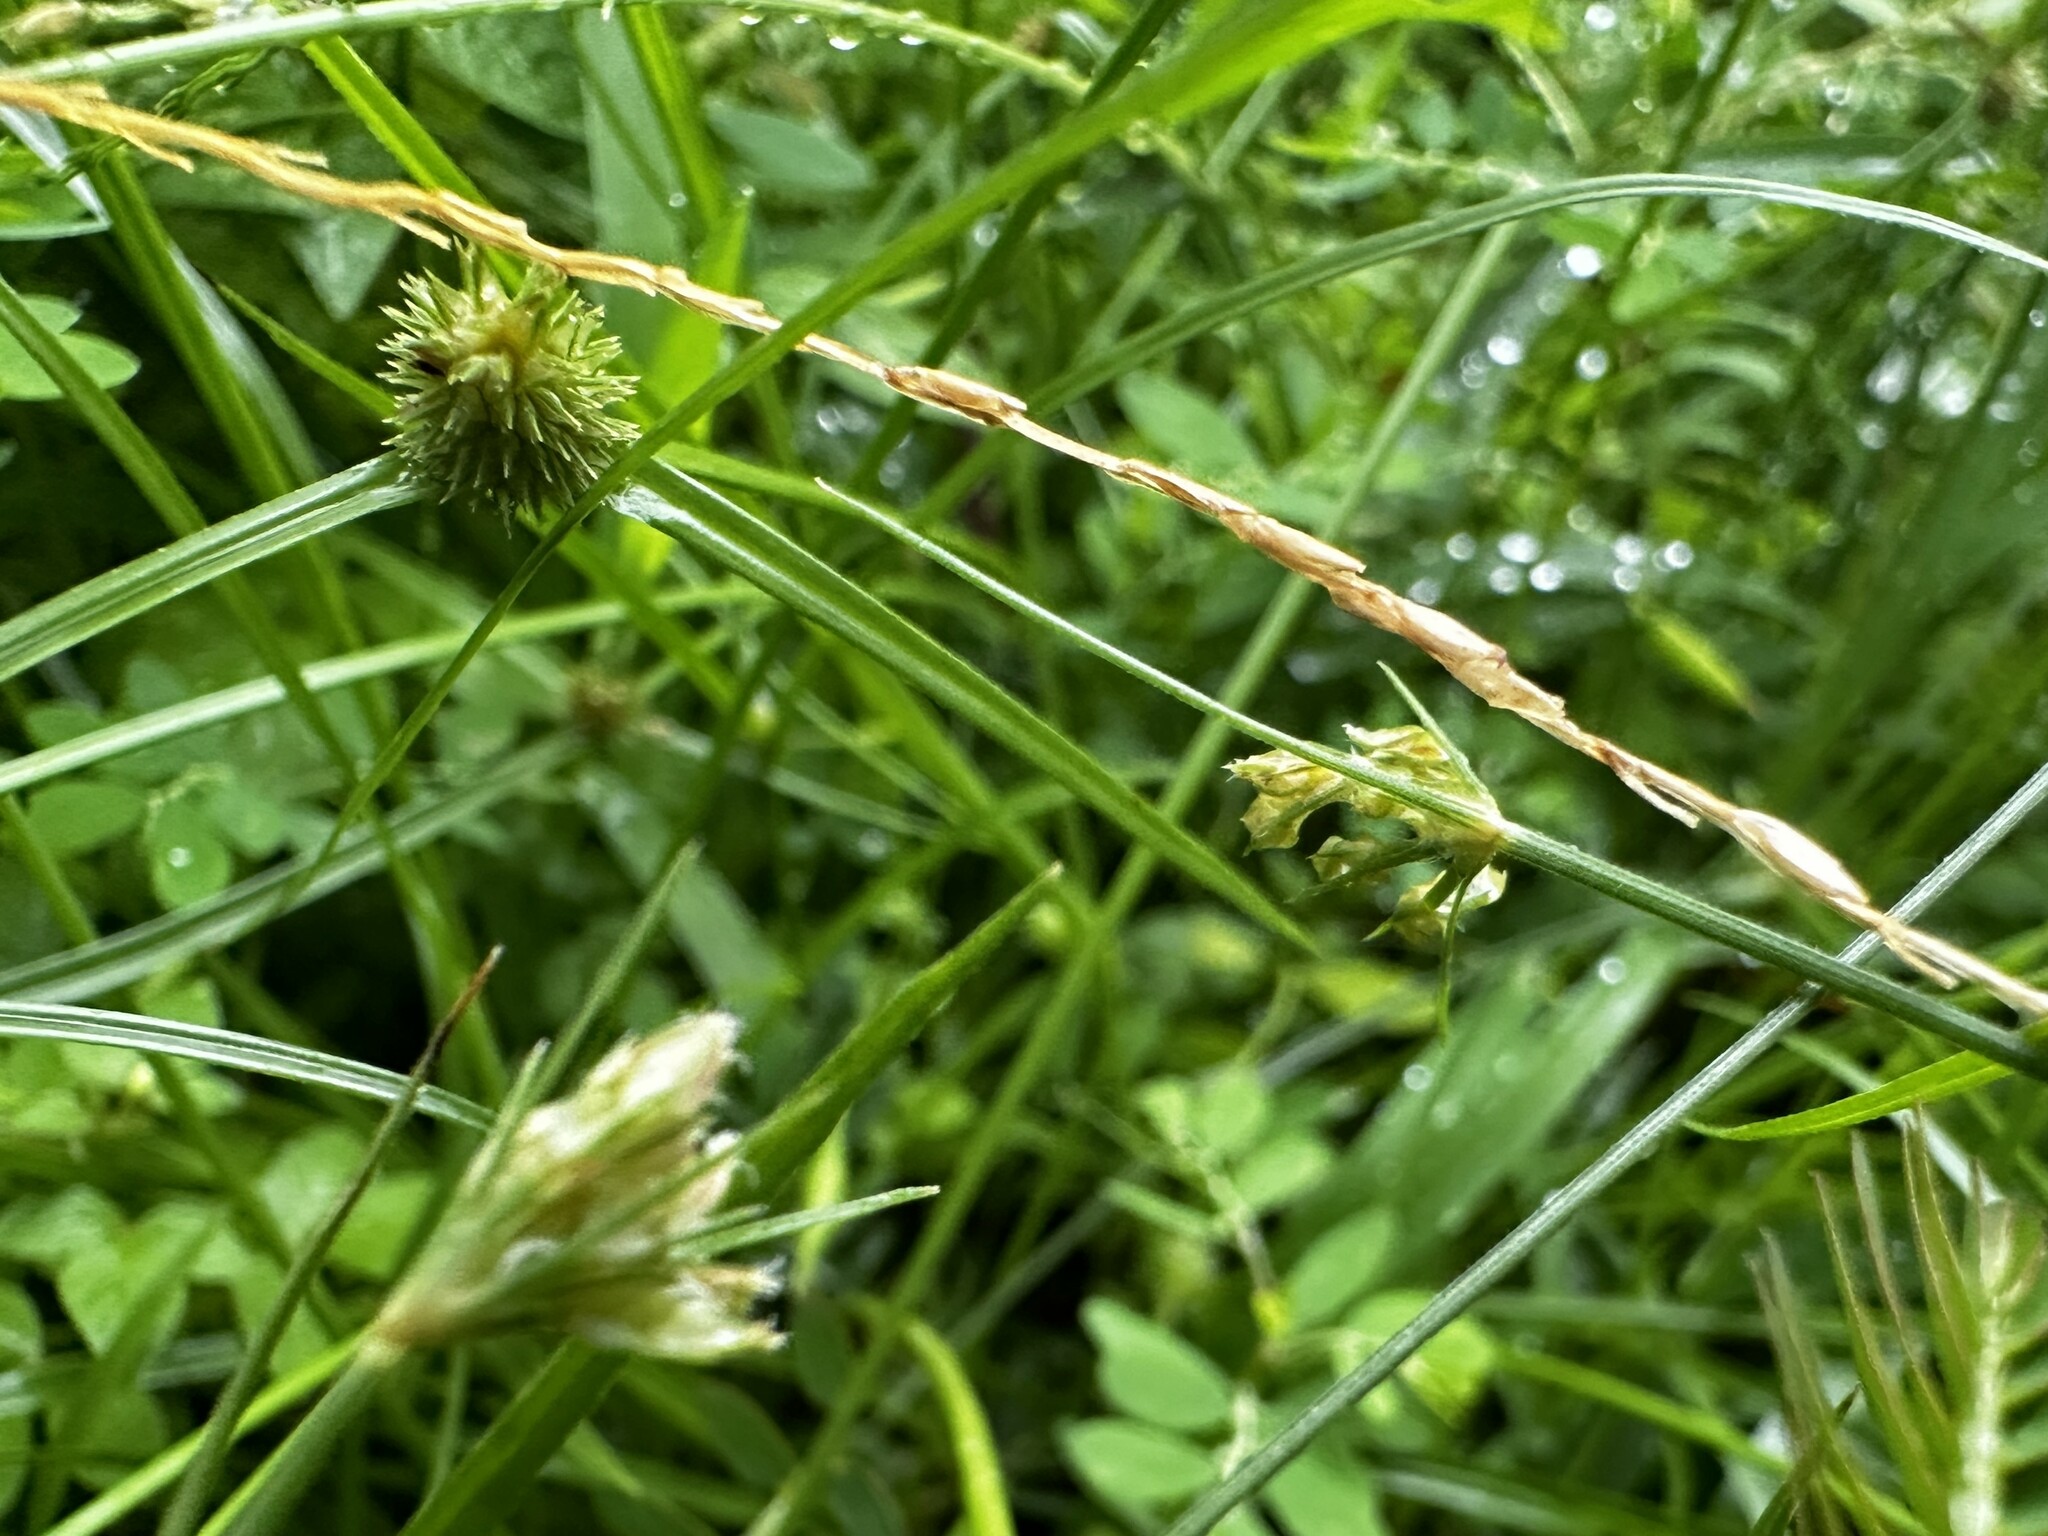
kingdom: Plantae
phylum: Tracheophyta
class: Liliopsida
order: Poales
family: Cyperaceae
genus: Bulbostylis
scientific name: Bulbostylis thouarsii
